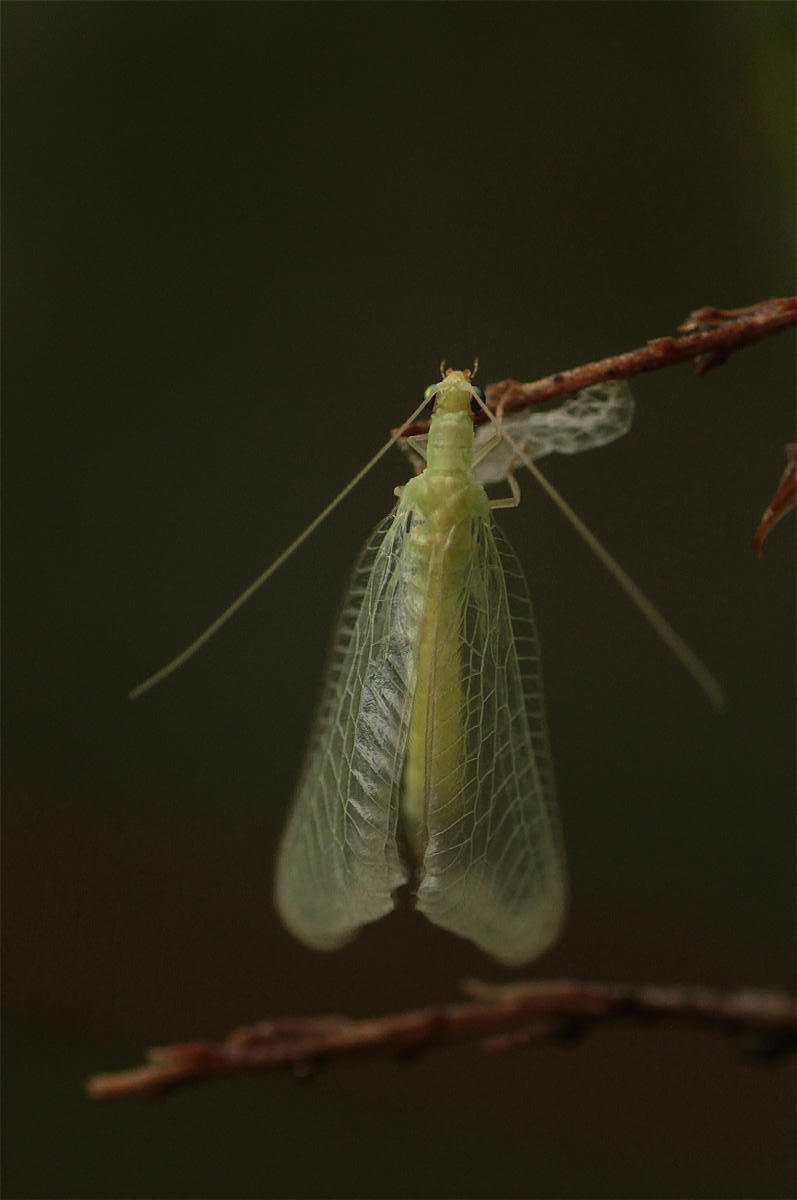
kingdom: Animalia
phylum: Arthropoda
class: Insecta
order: Neuroptera
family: Chrysopidae
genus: Chrysoperla
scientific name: Chrysoperla
